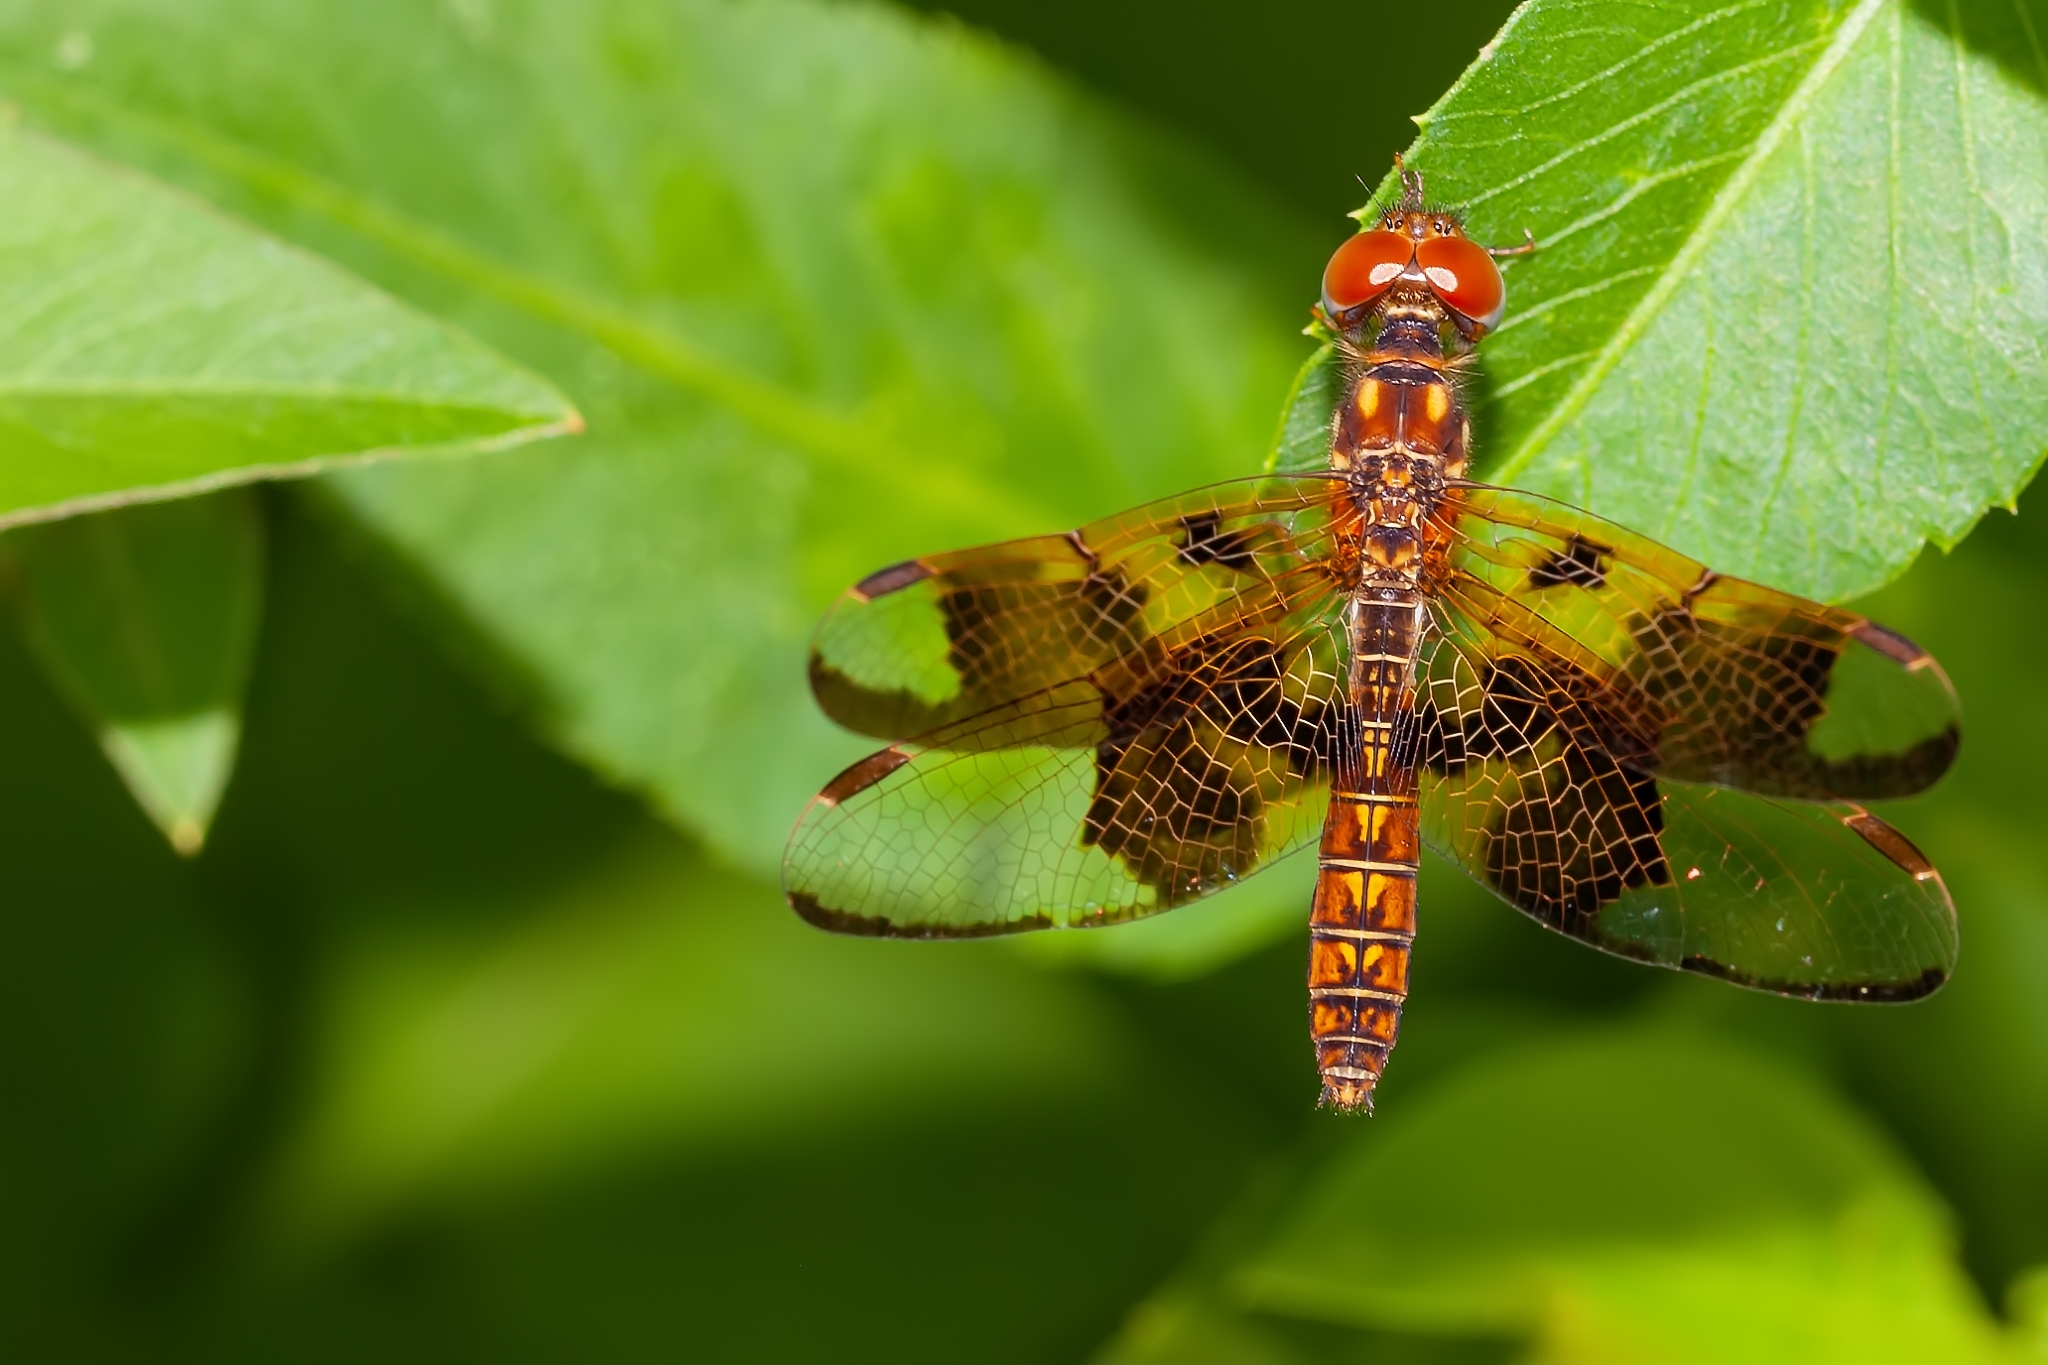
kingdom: Animalia
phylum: Arthropoda
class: Insecta
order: Odonata
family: Libellulidae
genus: Perithemis
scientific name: Perithemis tenera
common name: Eastern amberwing
